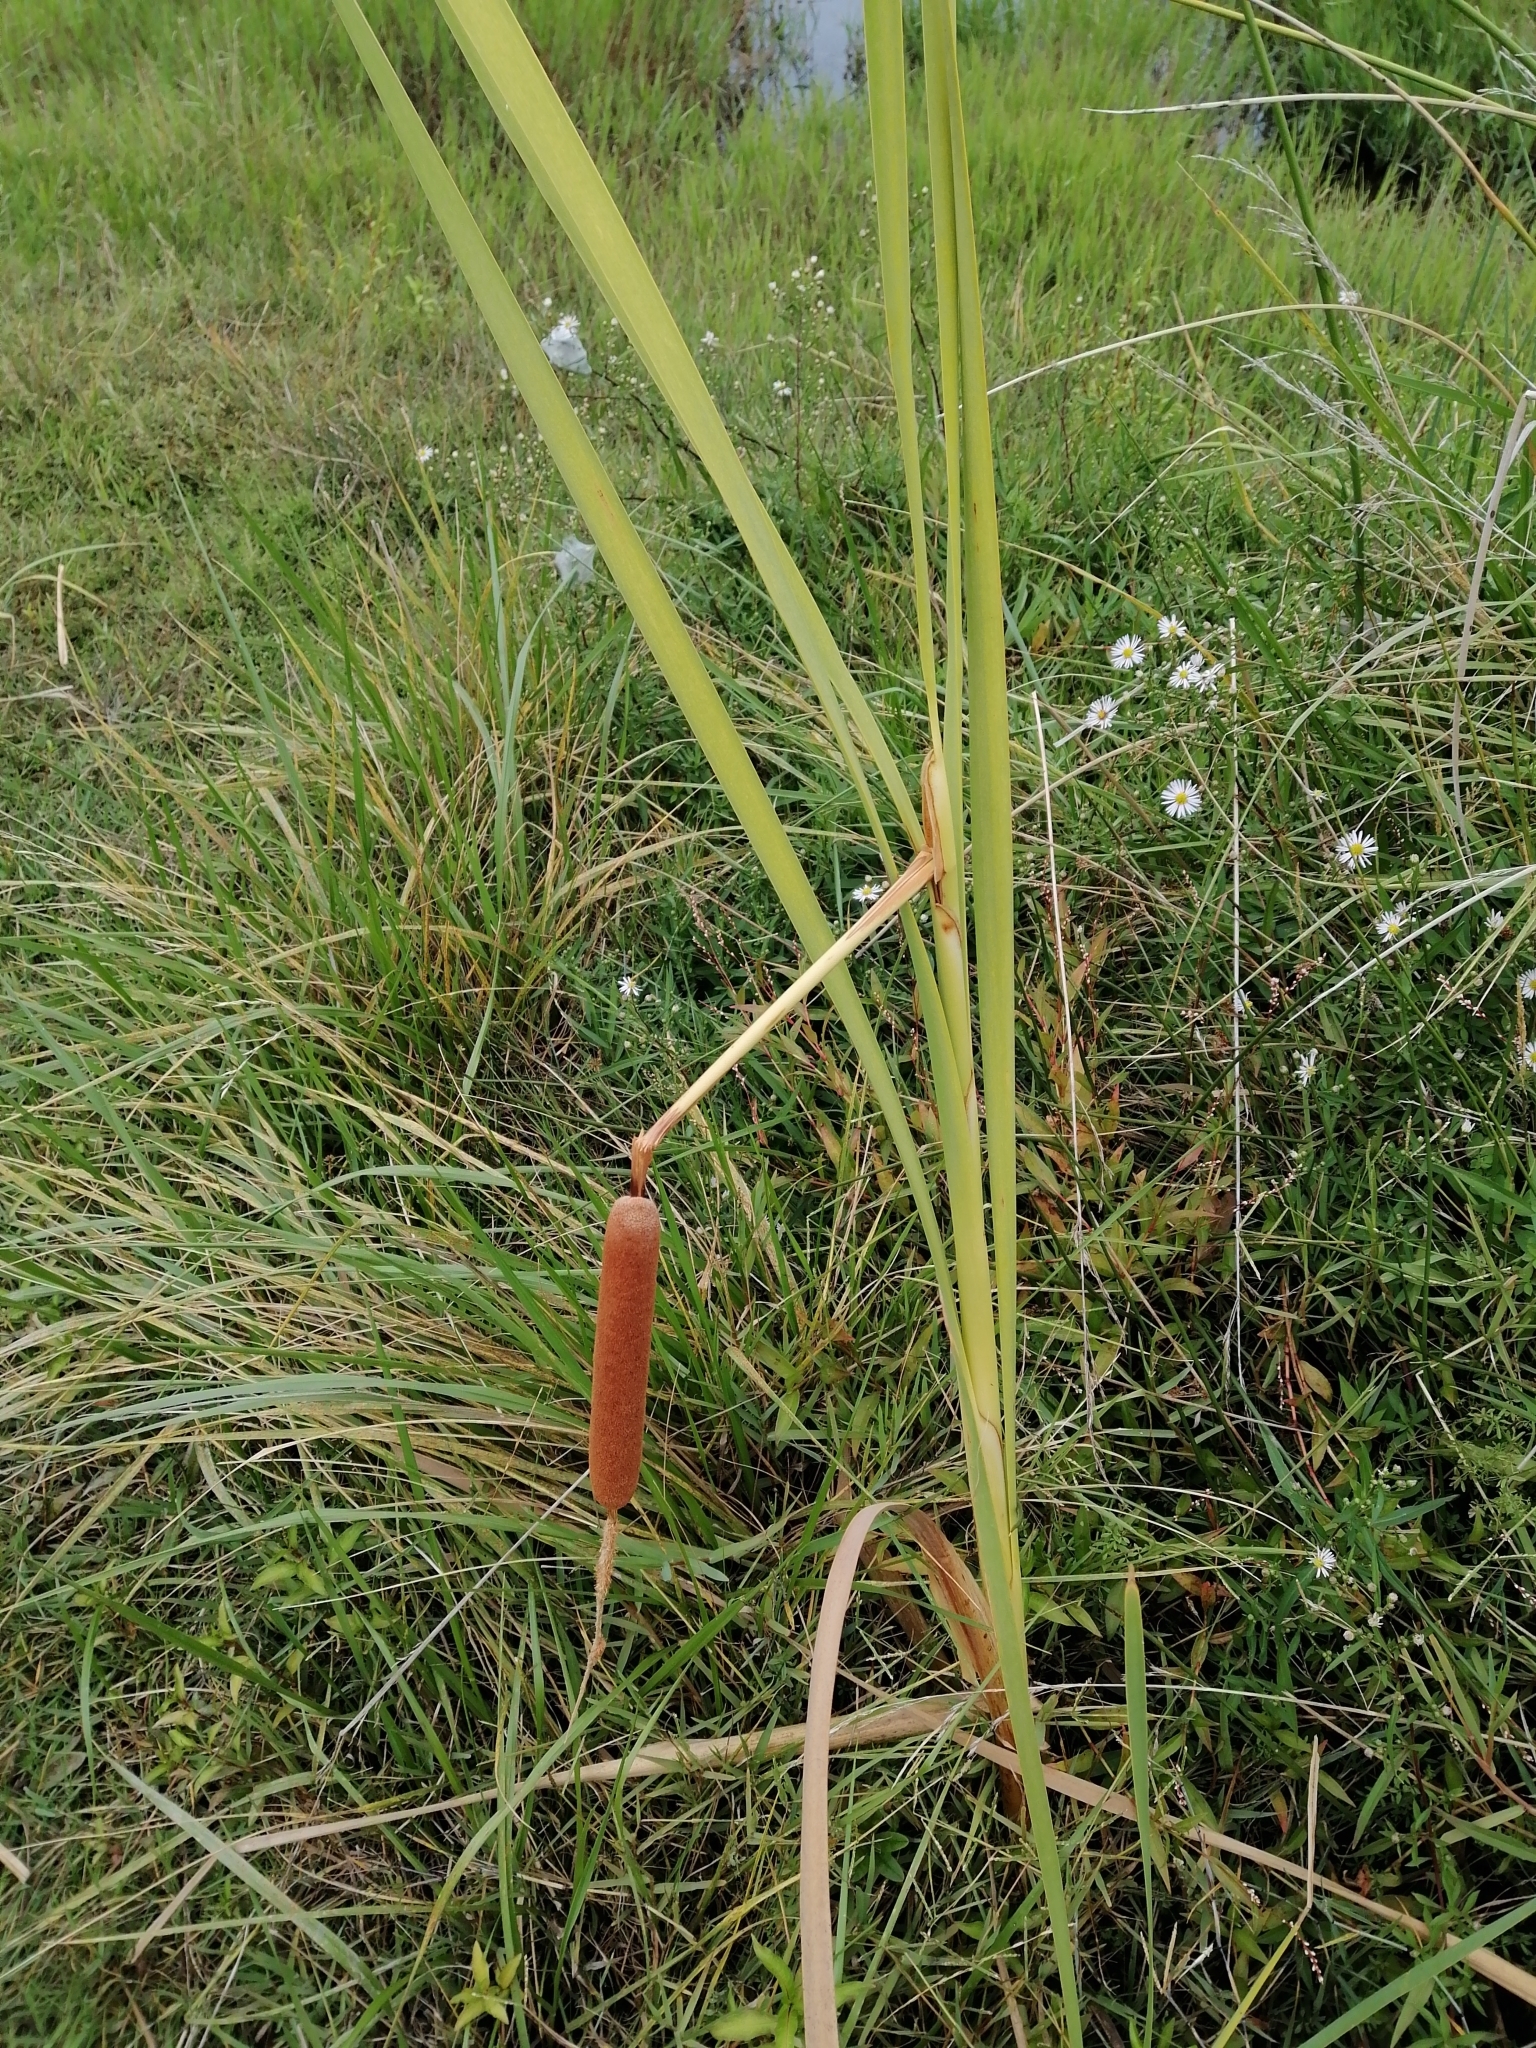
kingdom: Plantae
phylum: Tracheophyta
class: Liliopsida
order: Poales
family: Typhaceae
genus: Typha
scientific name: Typha orientalis
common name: Bullrush
